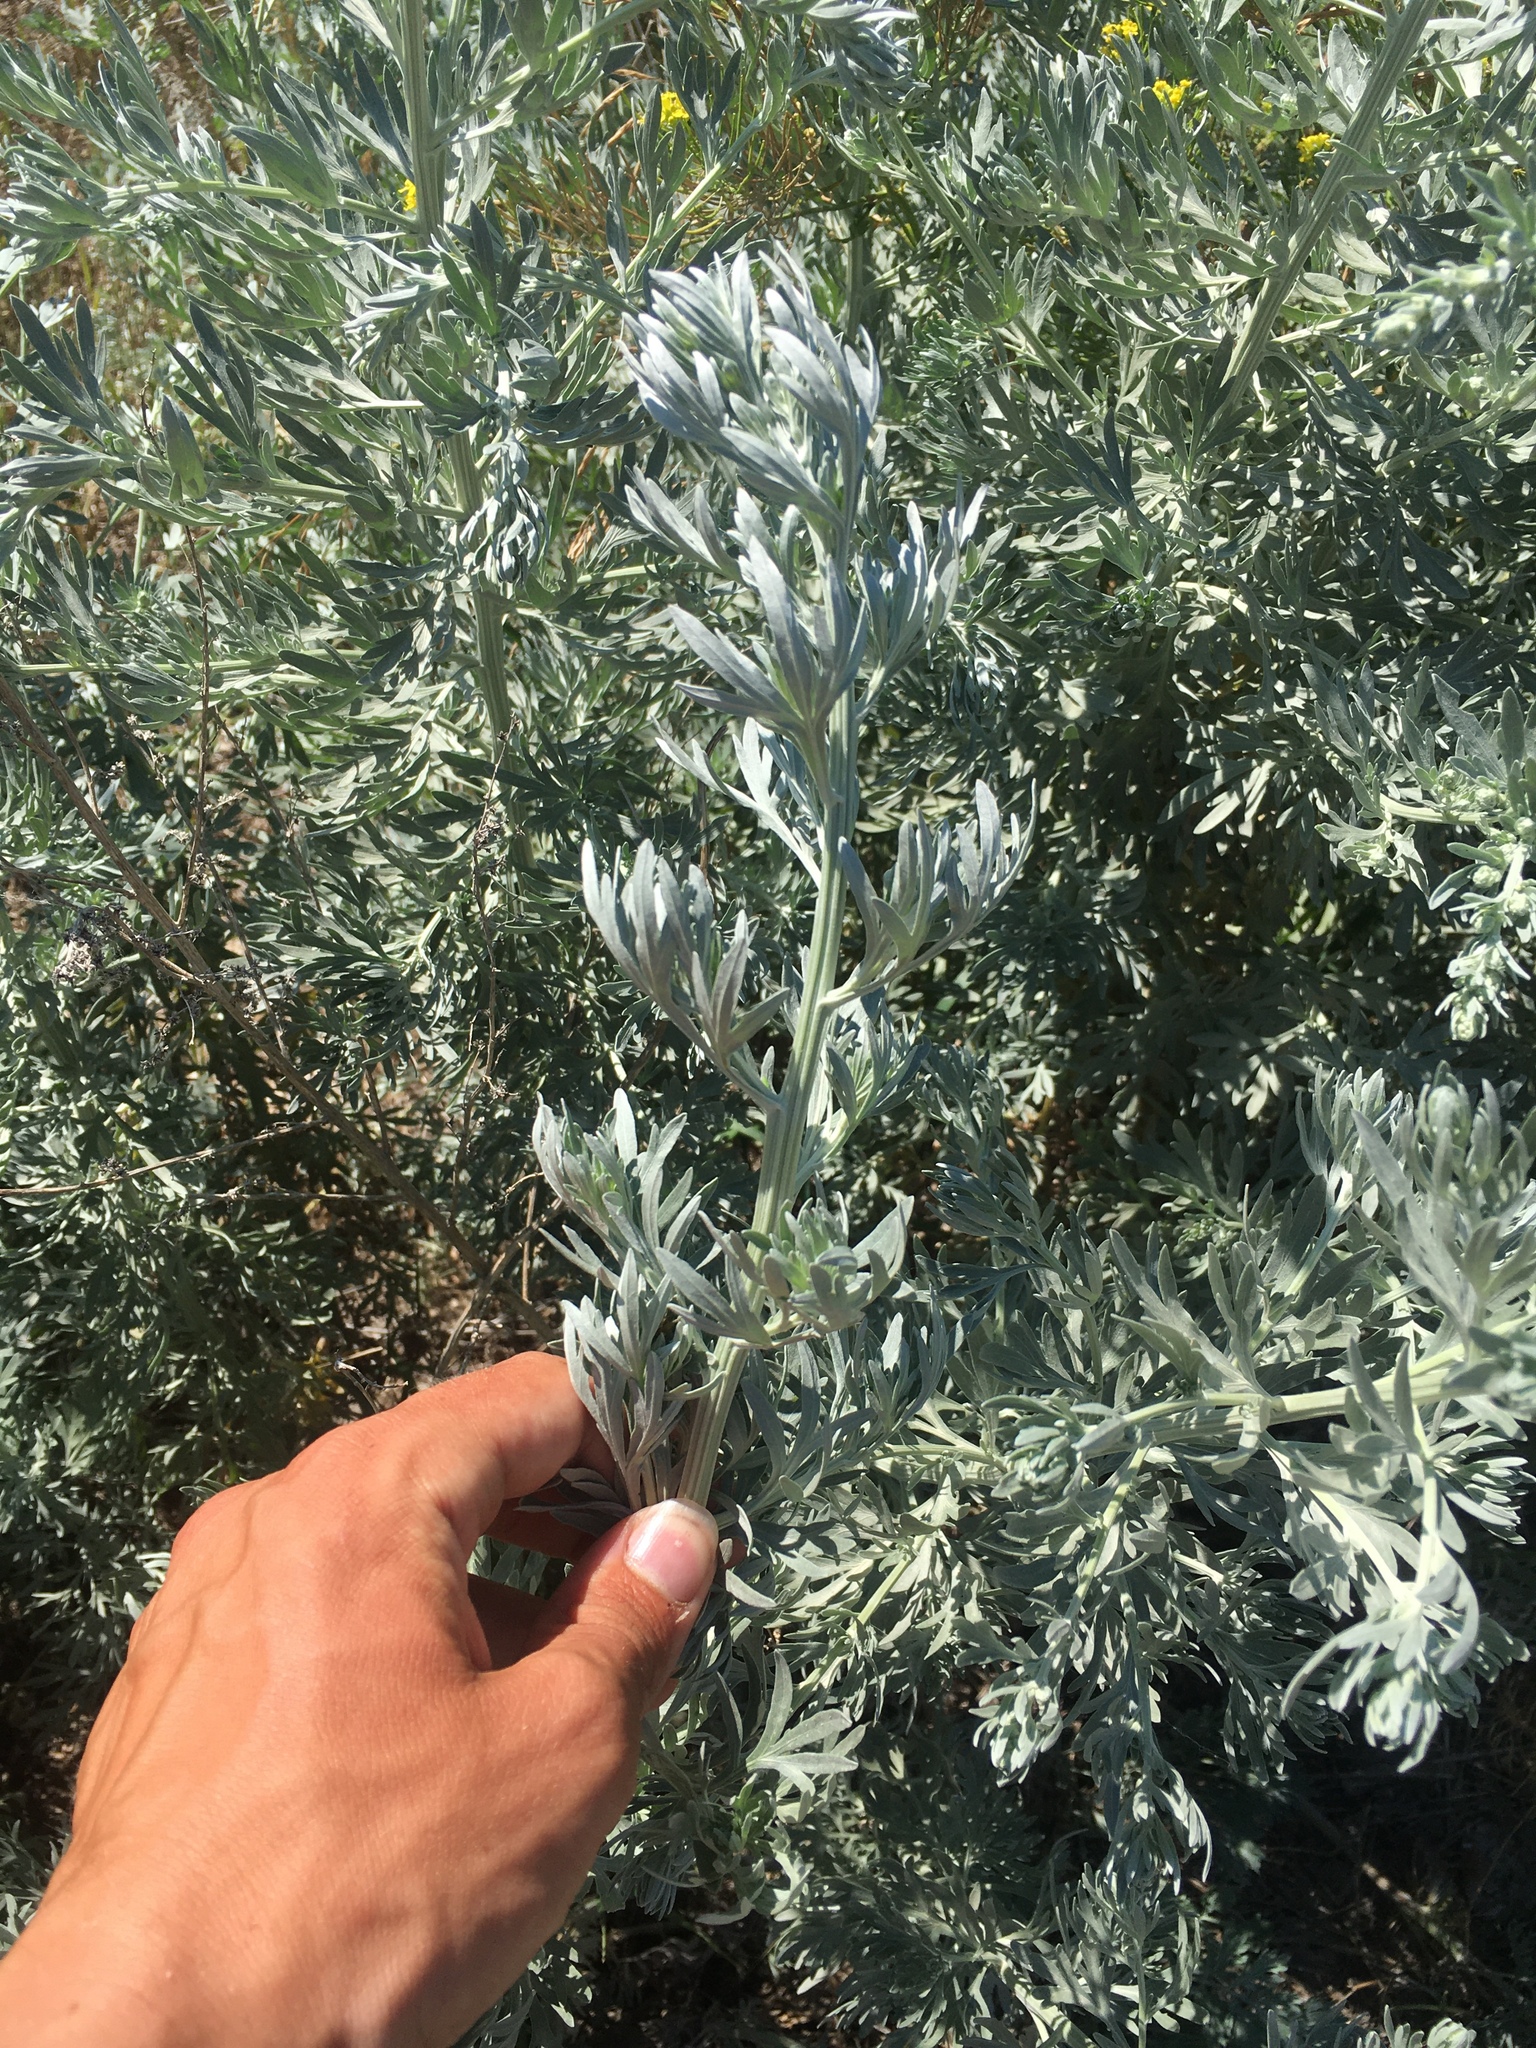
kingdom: Plantae
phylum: Tracheophyta
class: Magnoliopsida
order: Asterales
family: Asteraceae
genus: Artemisia
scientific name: Artemisia absinthium
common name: Wormwood
